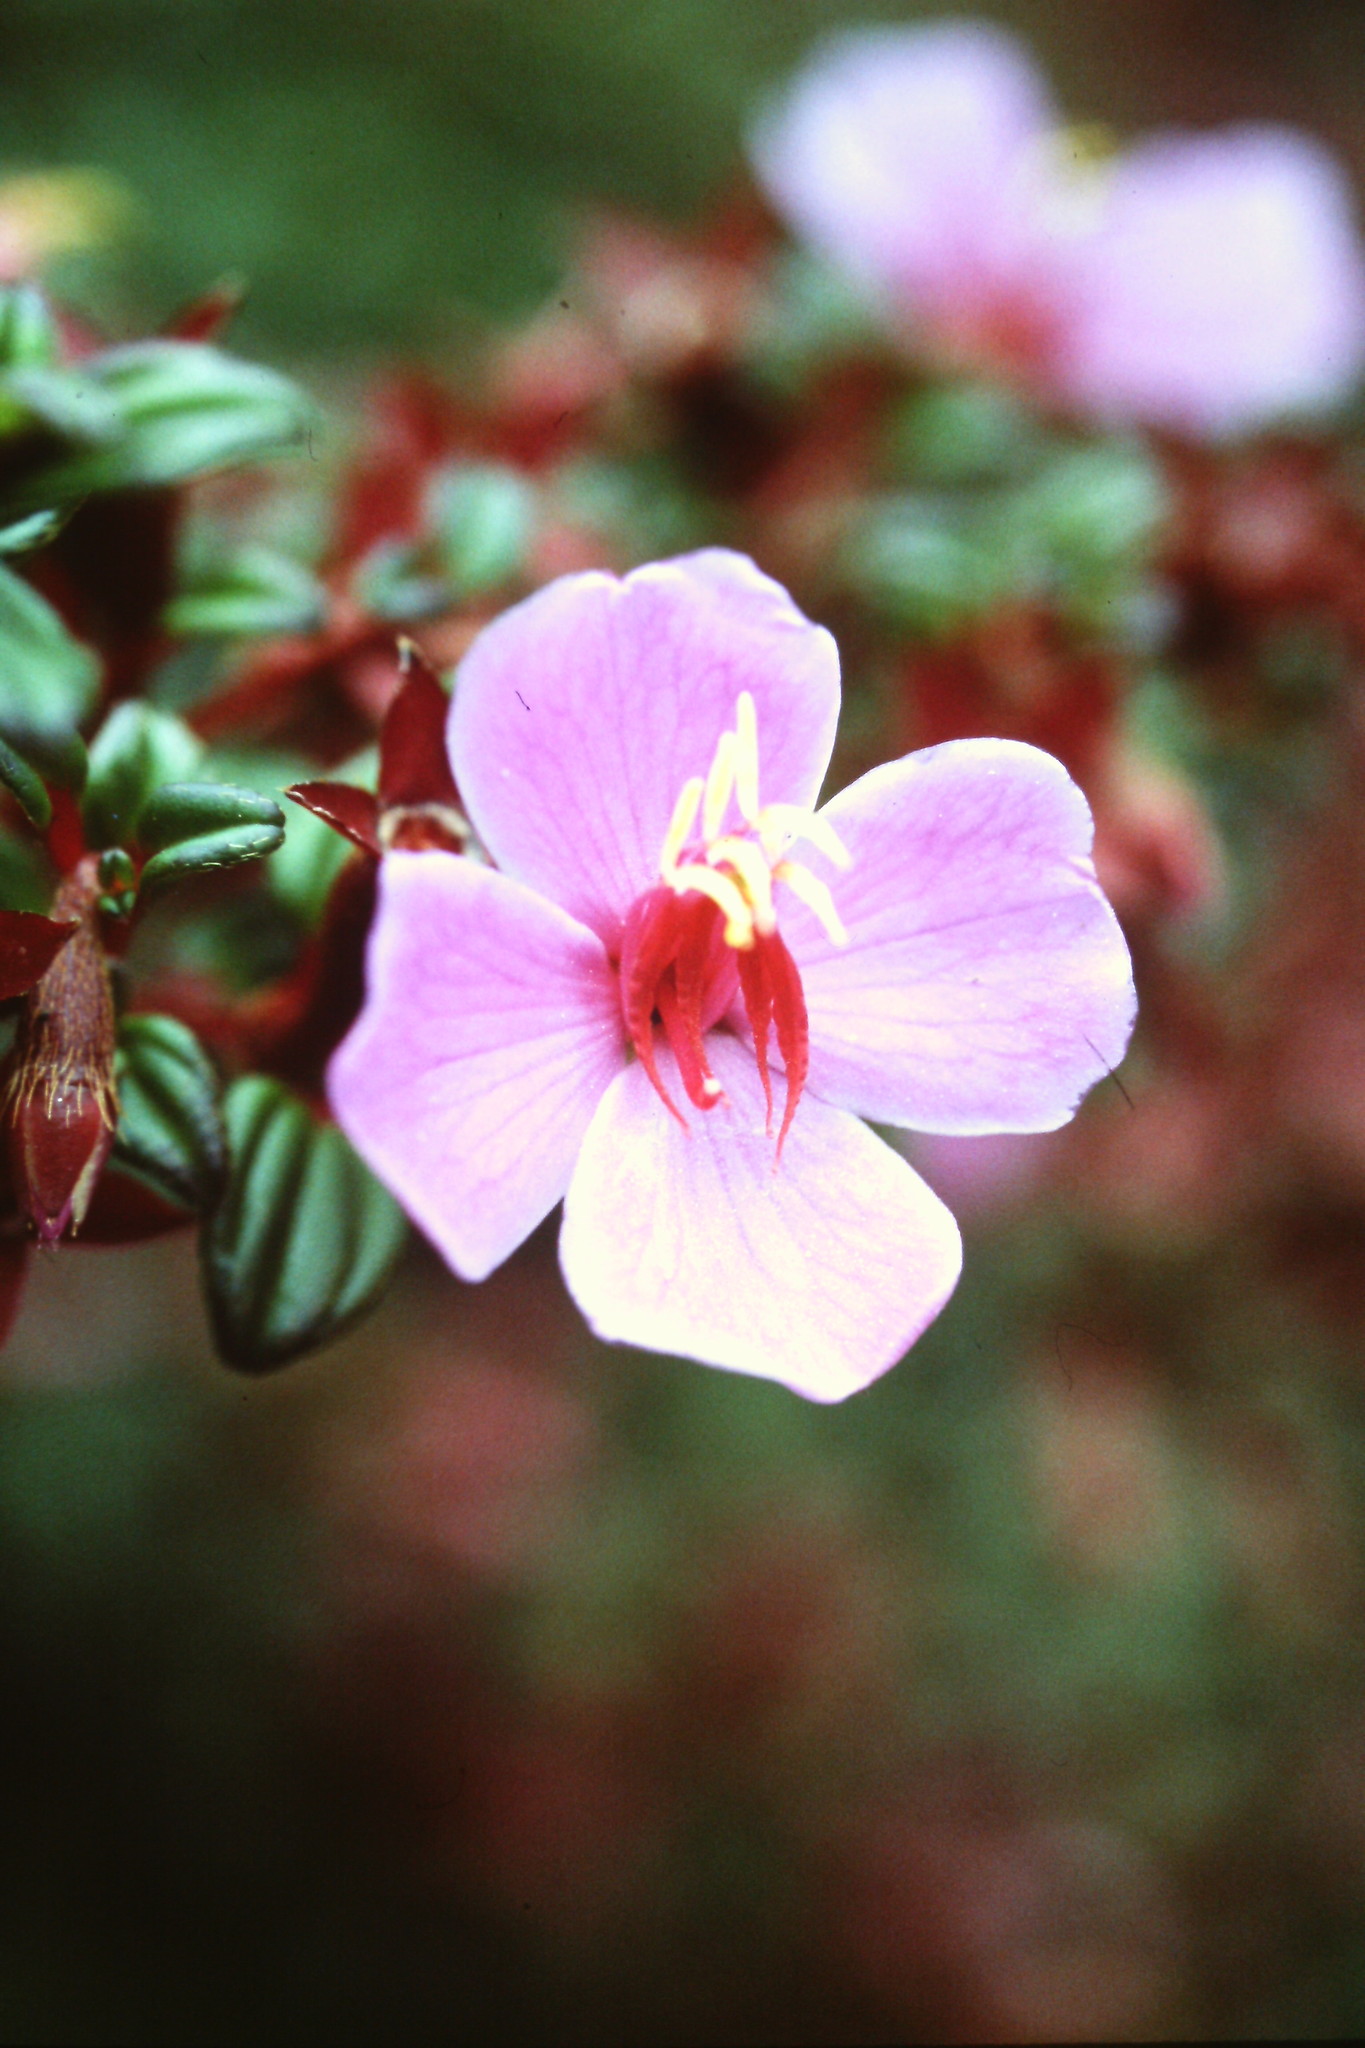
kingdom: Plantae
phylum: Tracheophyta
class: Magnoliopsida
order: Myrtales
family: Melastomataceae
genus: Monochaetum
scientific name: Monochaetum vulcanicum
